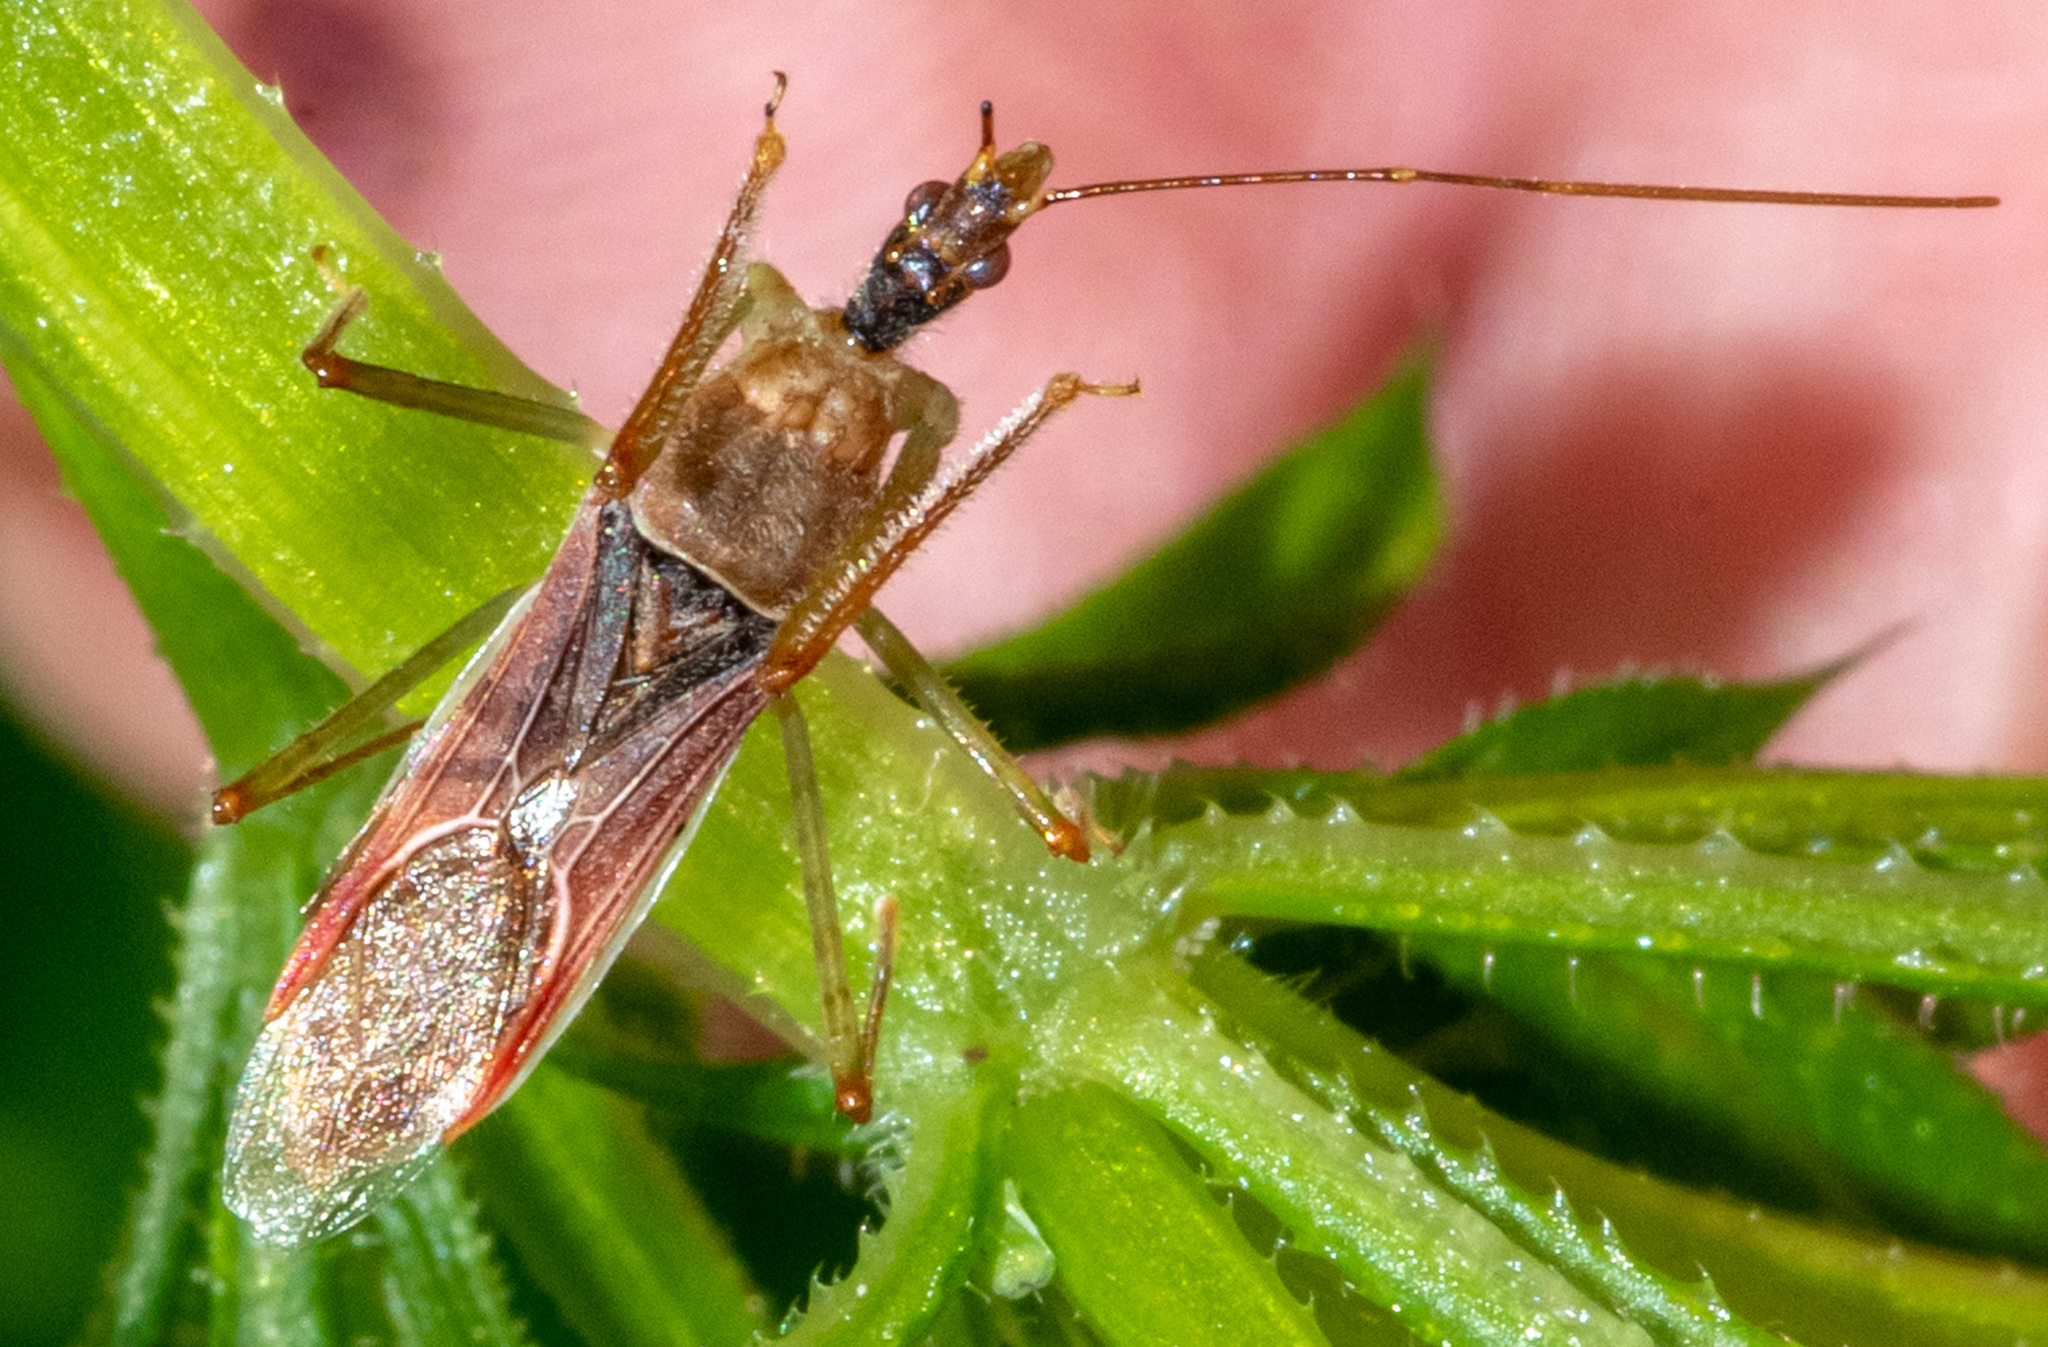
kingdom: Animalia
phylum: Arthropoda
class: Insecta
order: Hemiptera
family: Reduviidae
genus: Zelus
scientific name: Zelus renardii
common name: Assassin bug
